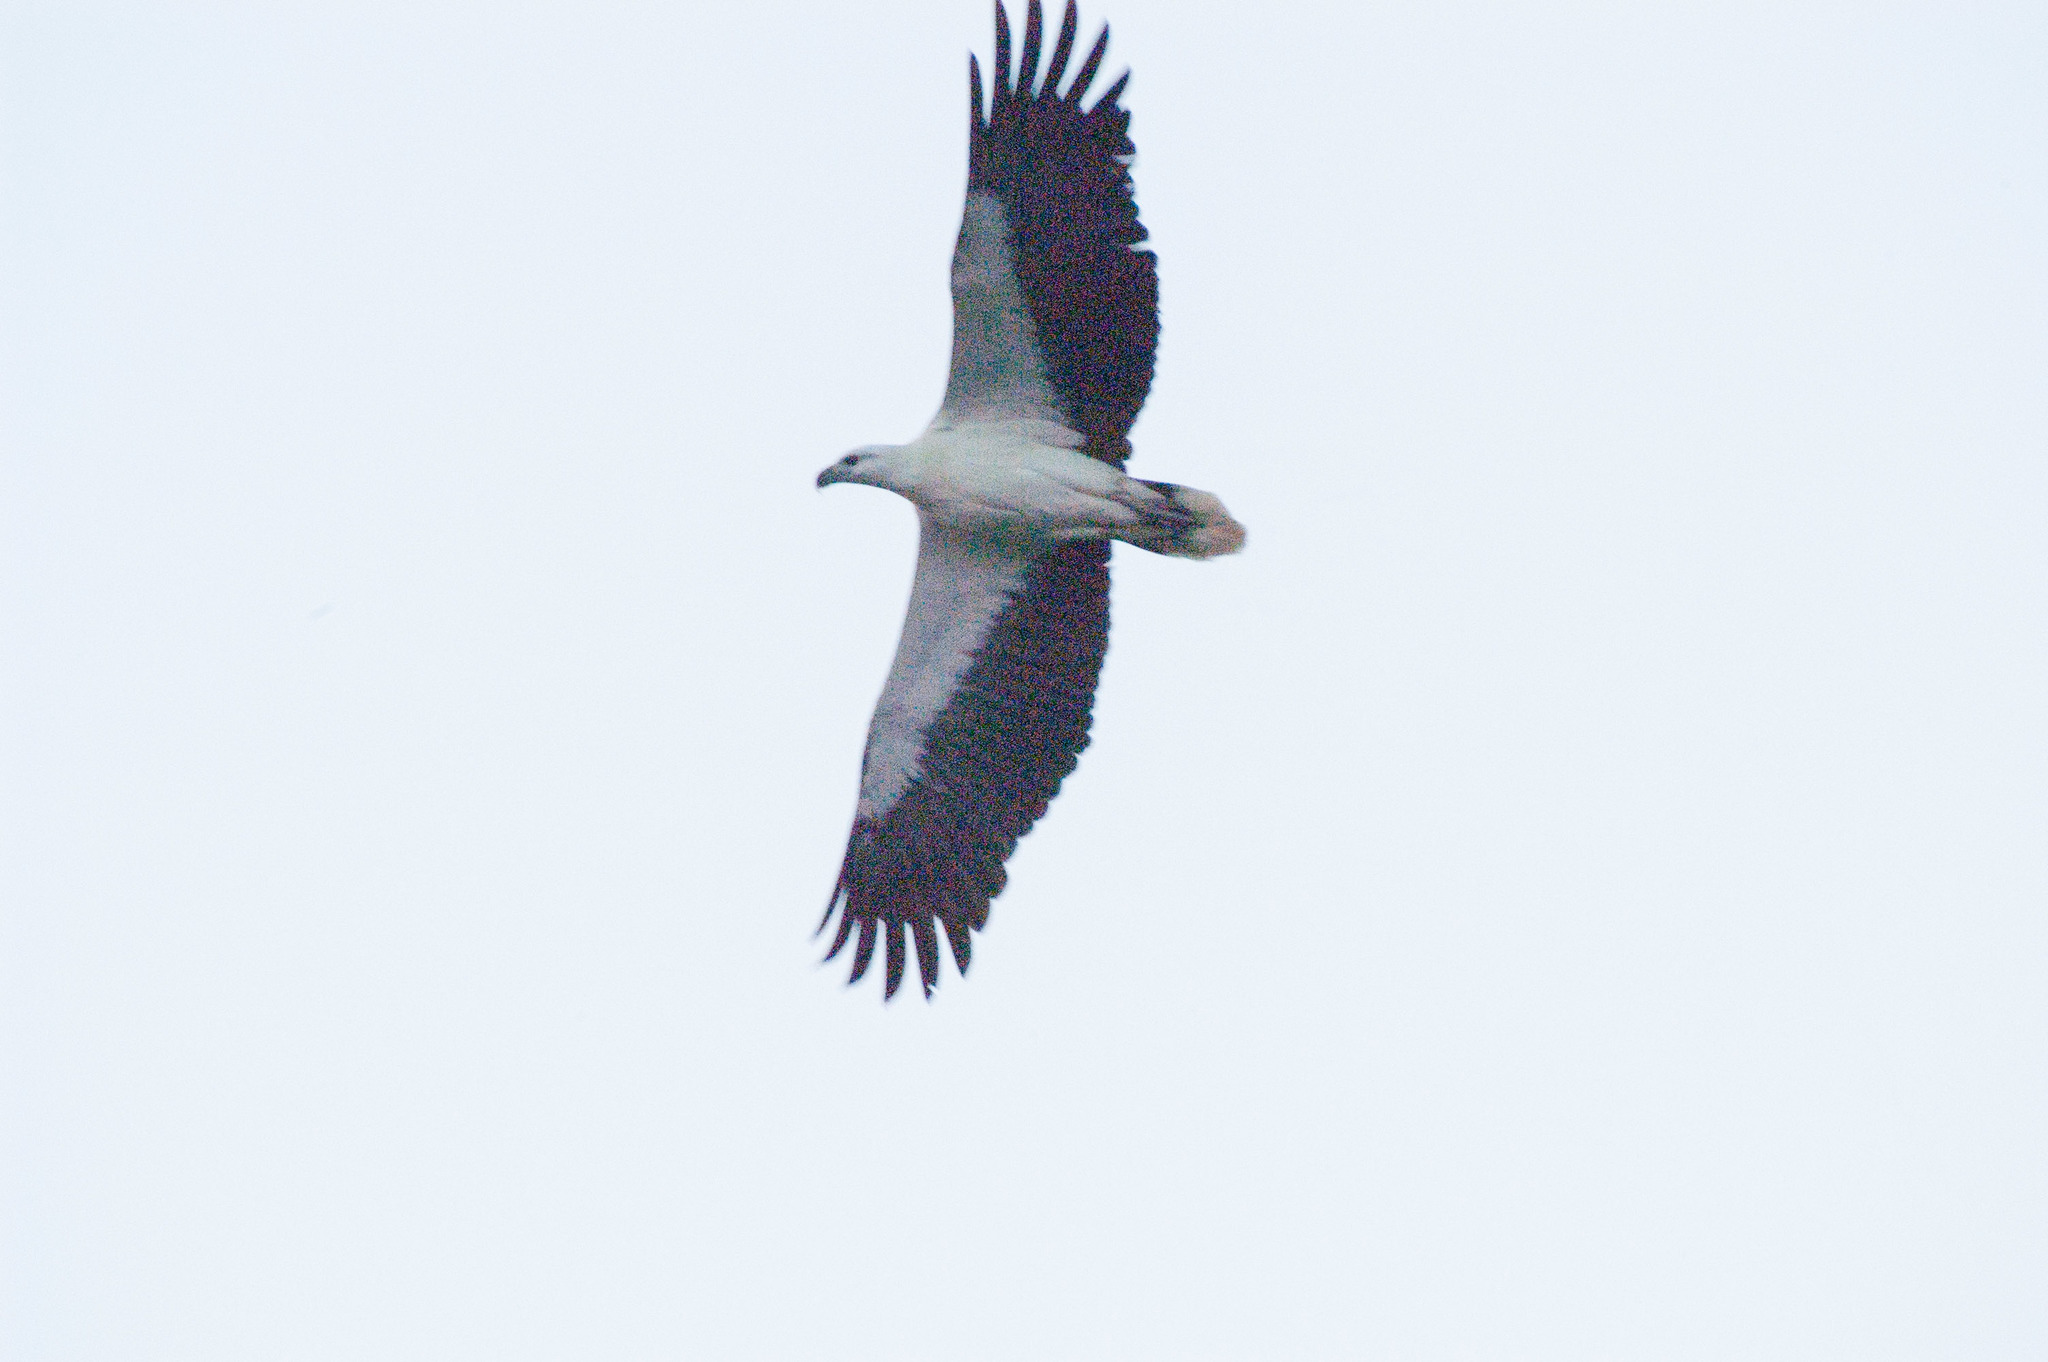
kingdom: Animalia
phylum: Chordata
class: Aves
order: Accipitriformes
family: Accipitridae
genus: Haliaeetus
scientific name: Haliaeetus leucogaster
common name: White-bellied sea eagle
